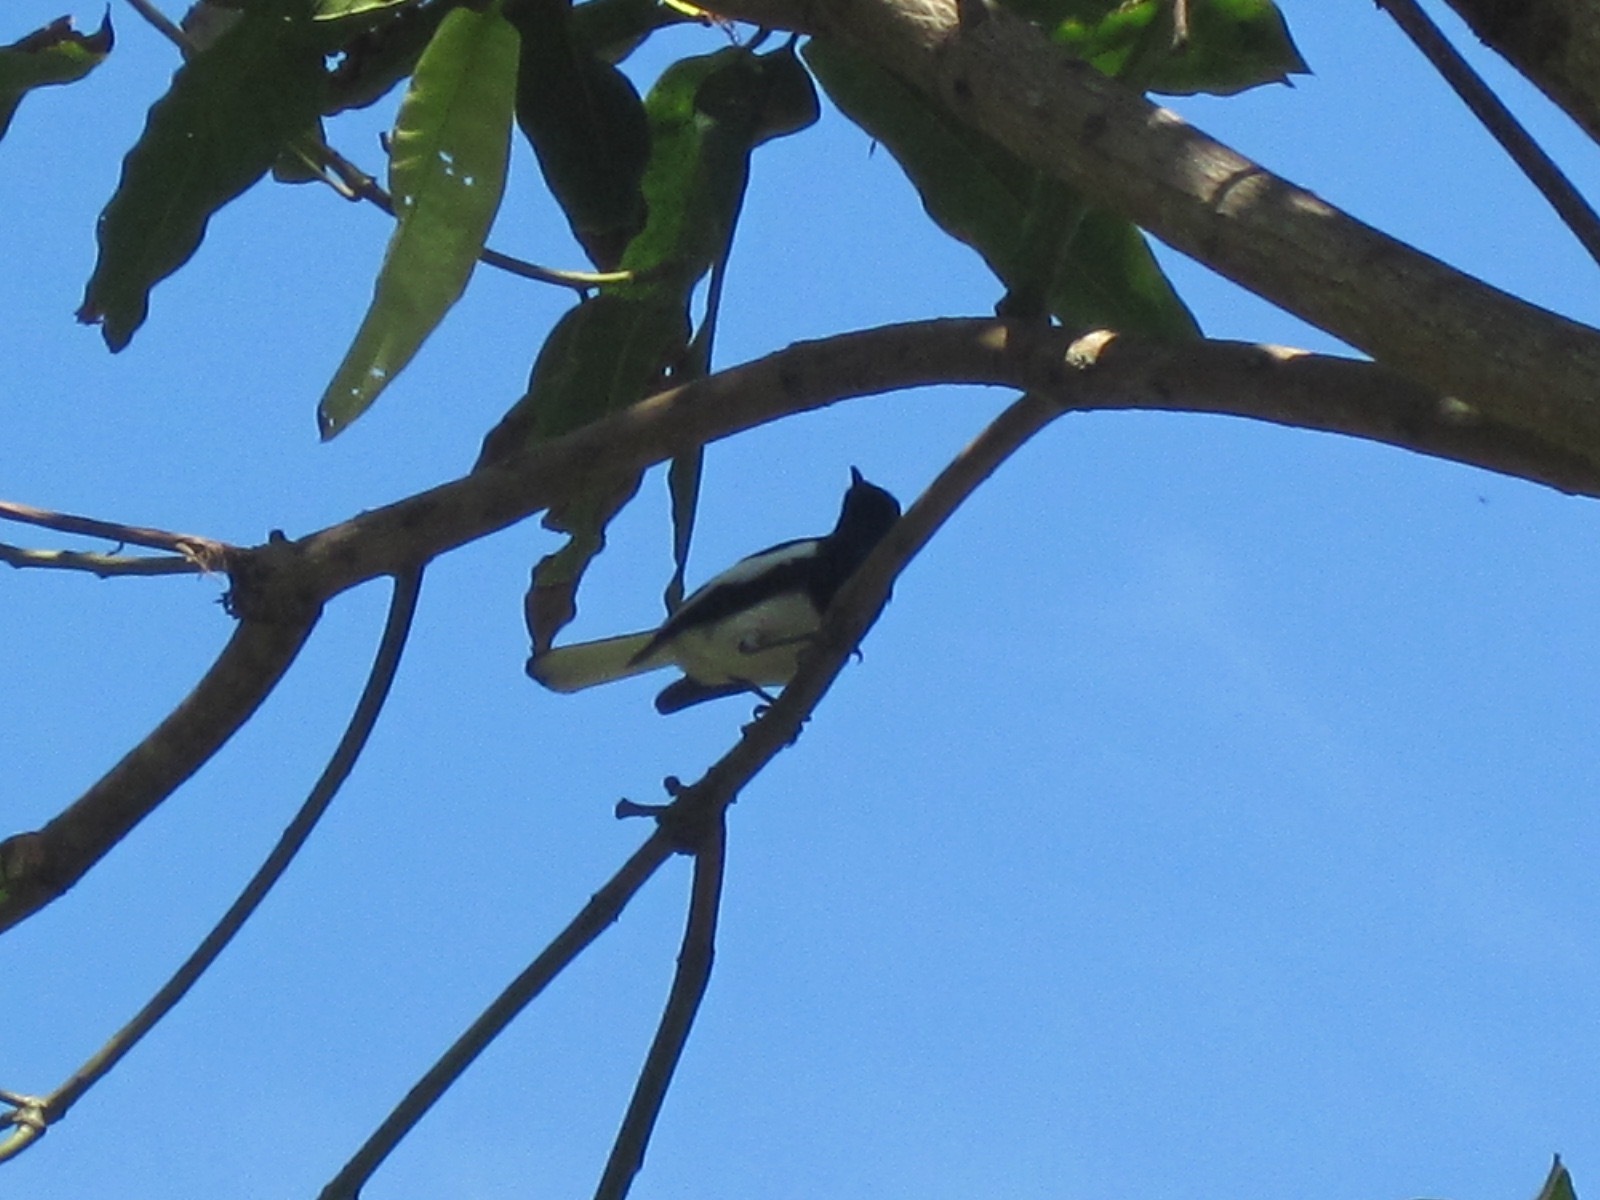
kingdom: Animalia
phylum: Chordata
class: Aves
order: Passeriformes
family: Muscicapidae
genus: Copsychus
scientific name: Copsychus saularis
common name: Oriental magpie-robin
